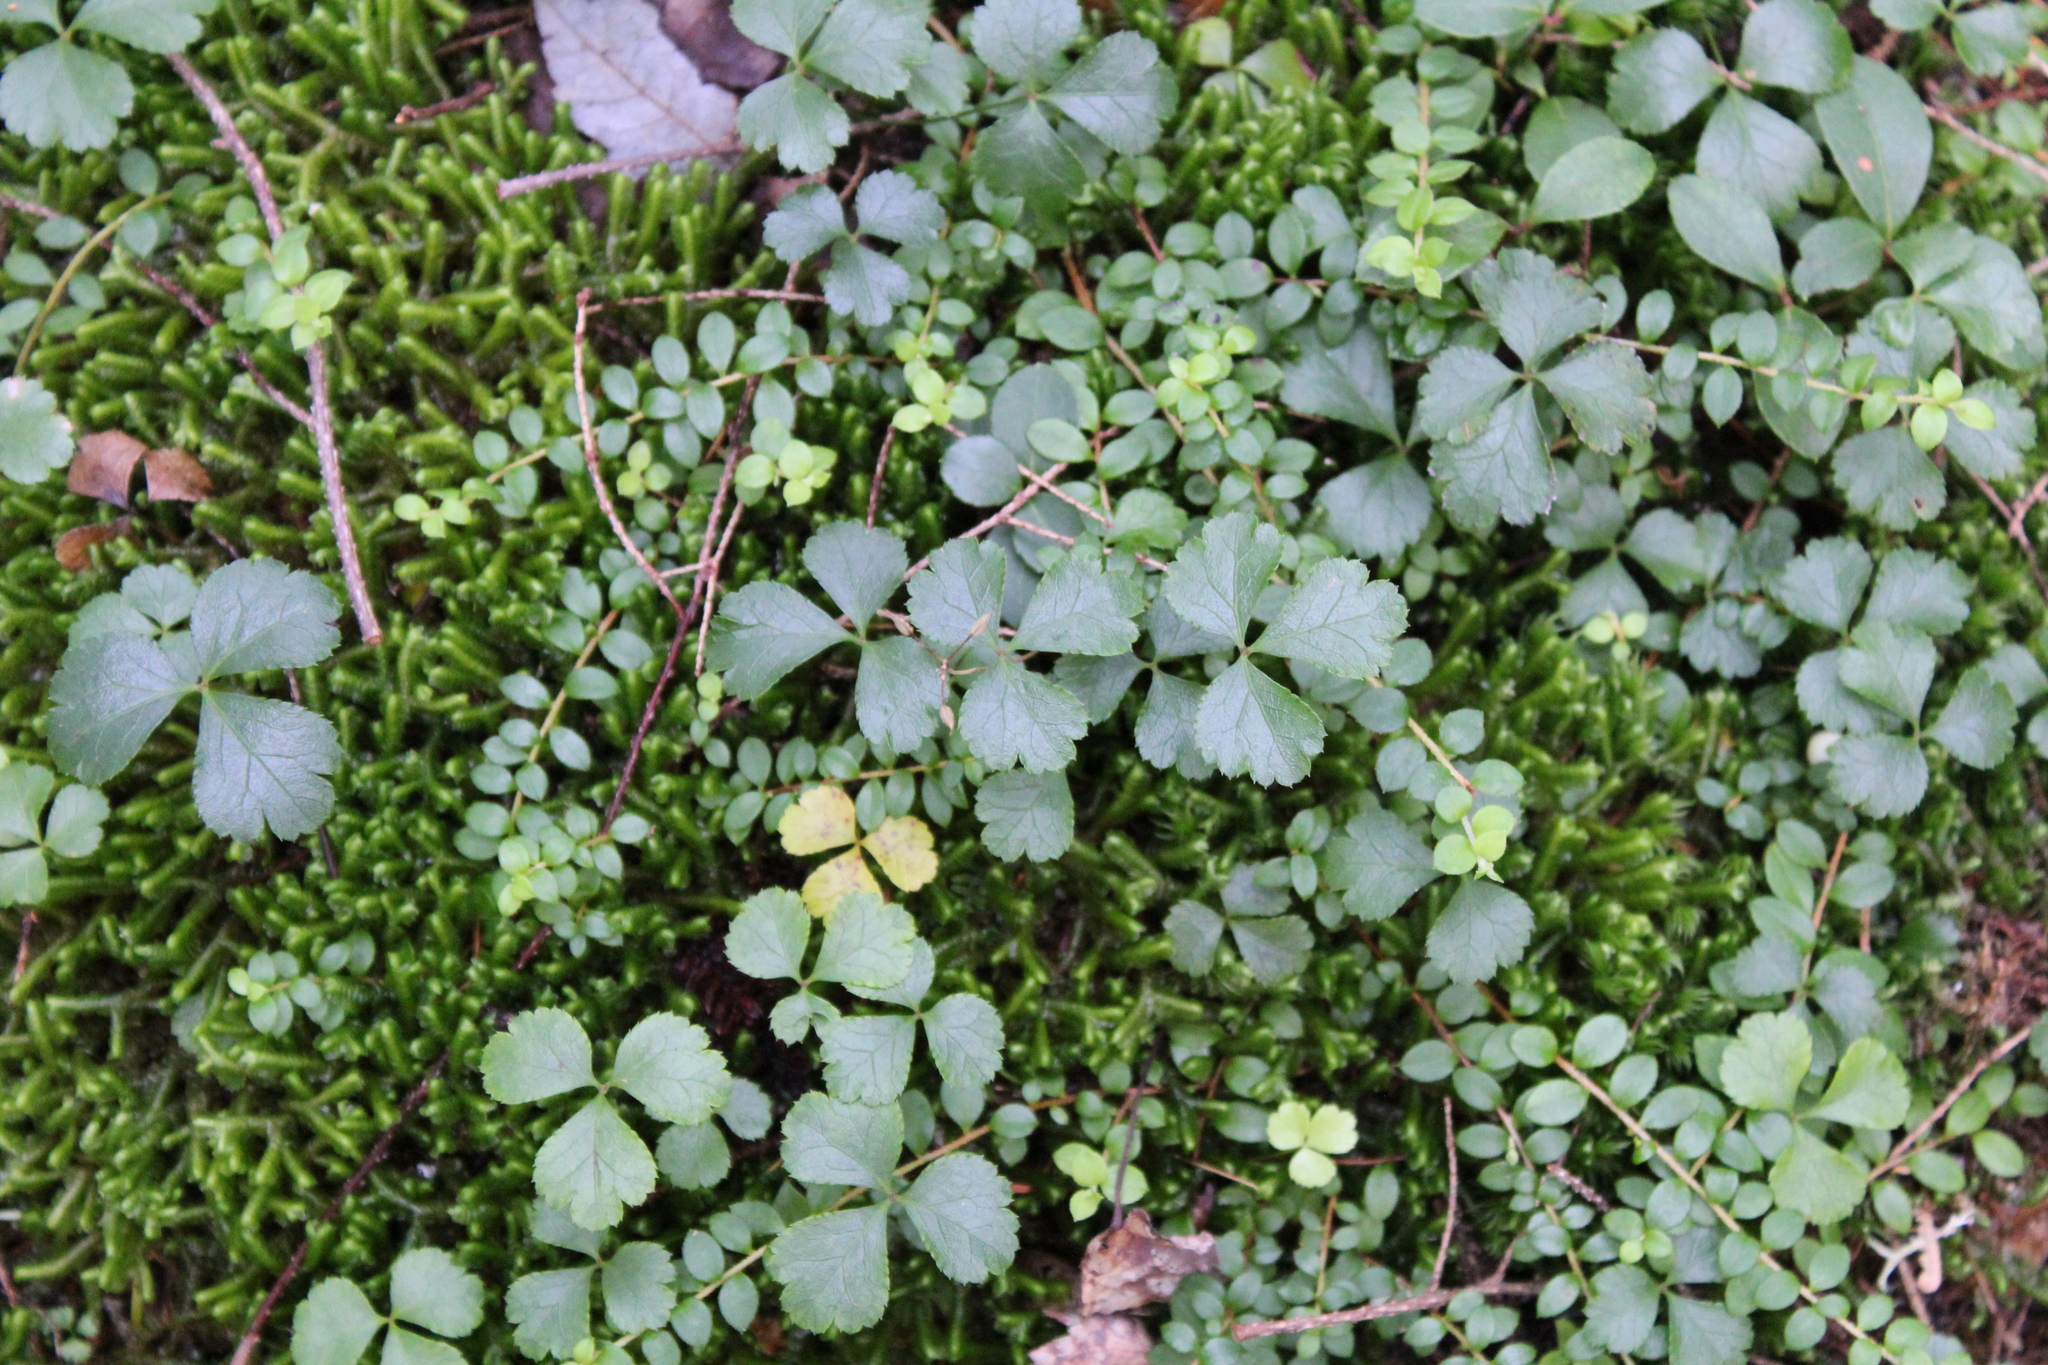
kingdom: Plantae
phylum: Tracheophyta
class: Magnoliopsida
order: Ranunculales
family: Ranunculaceae
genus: Coptis
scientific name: Coptis trifolia
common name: Canker-root
